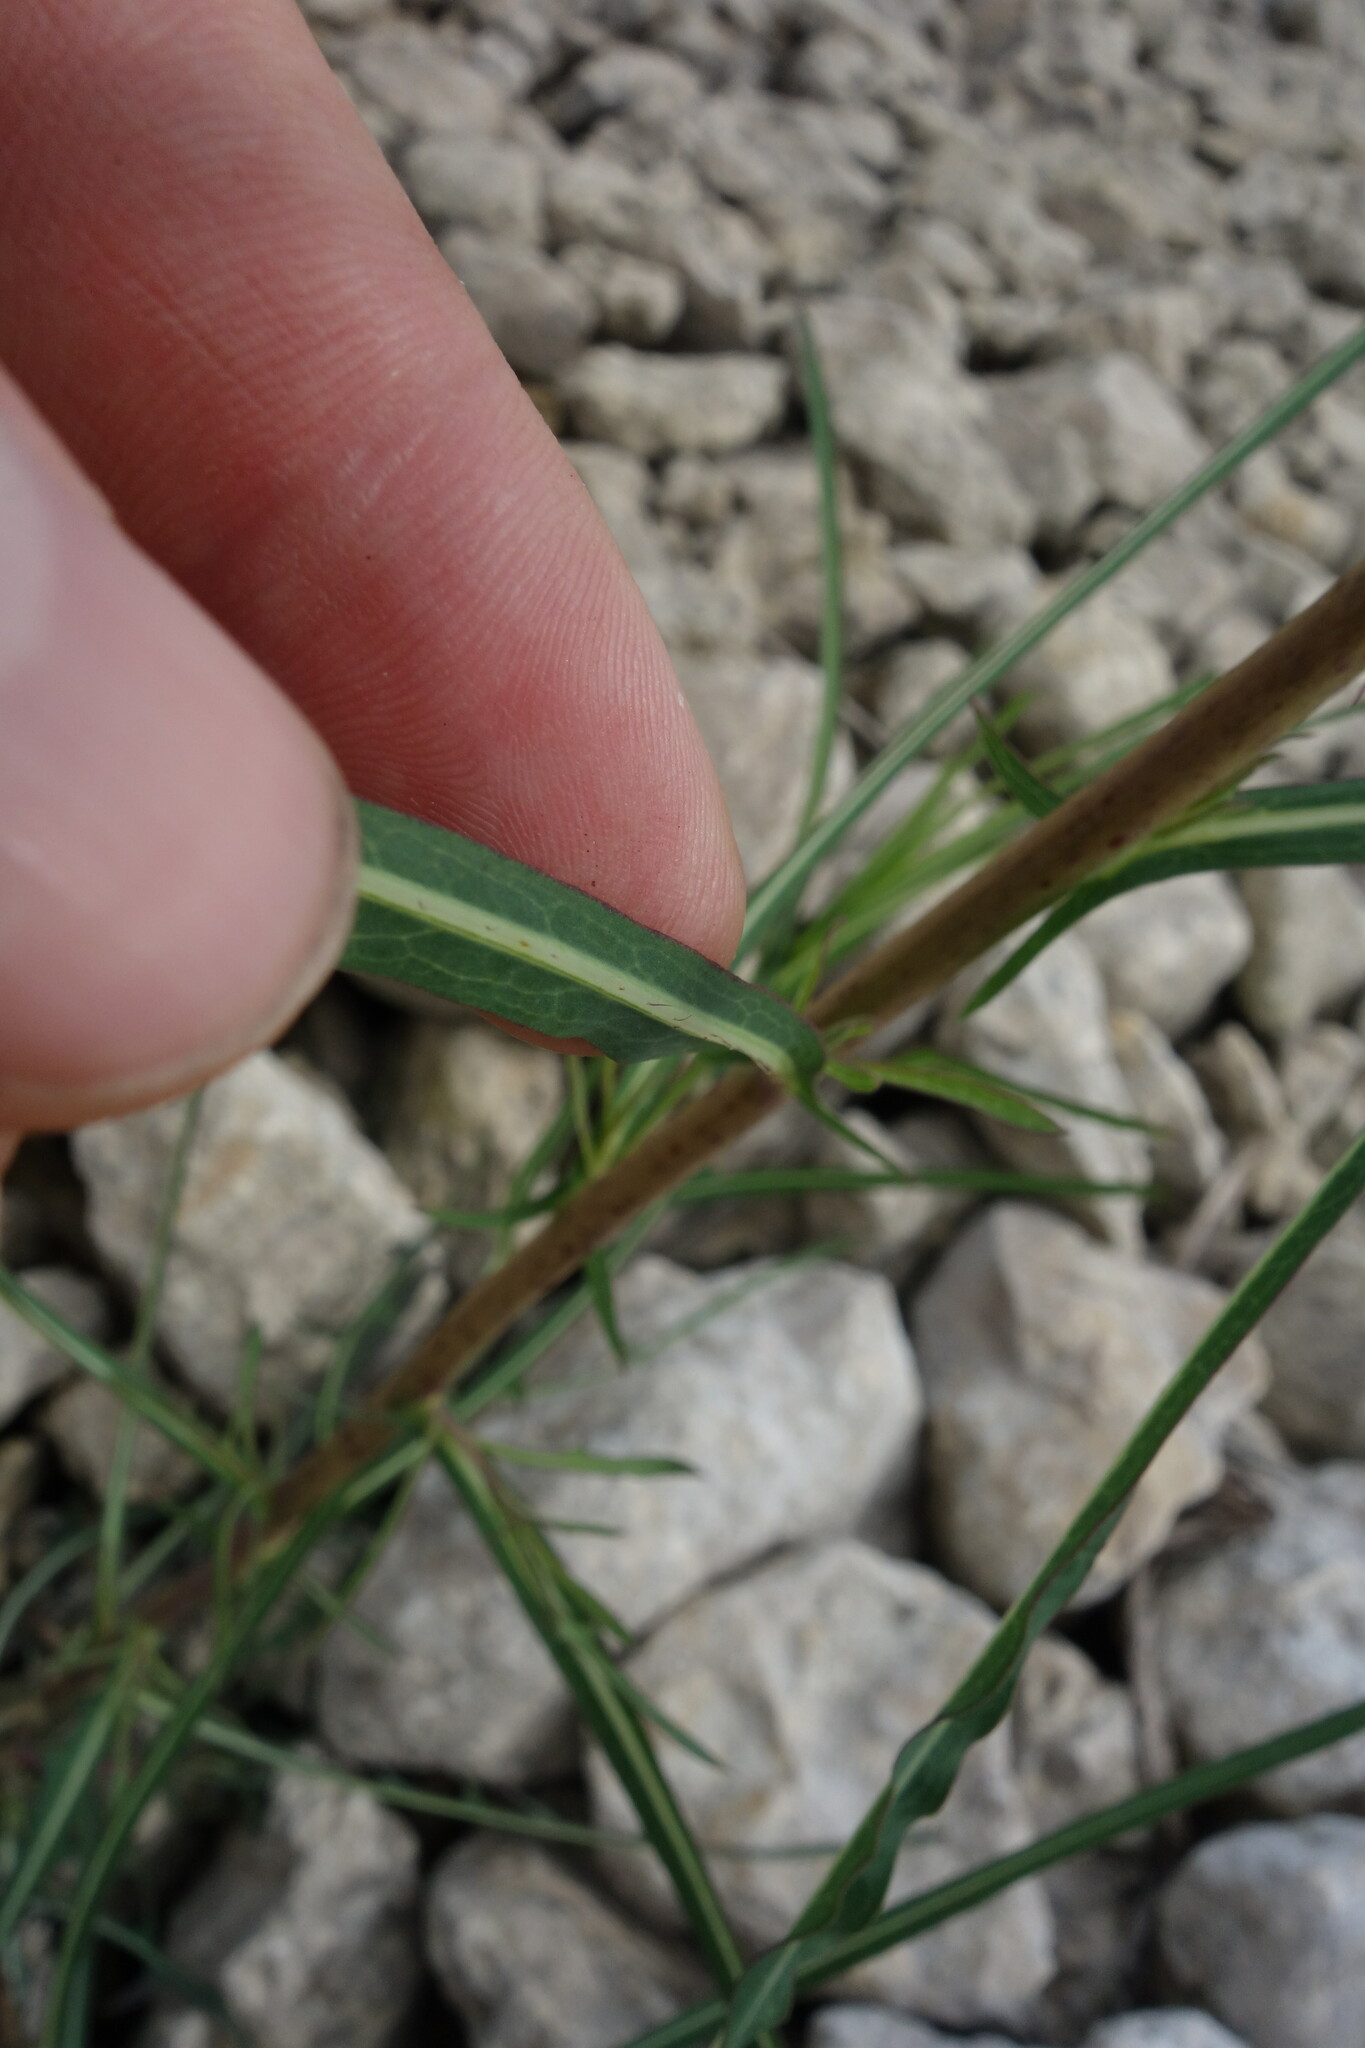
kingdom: Plantae
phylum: Tracheophyta
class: Magnoliopsida
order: Asterales
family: Asteraceae
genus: Lactuca
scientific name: Lactuca saligna
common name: Wild lettuce
